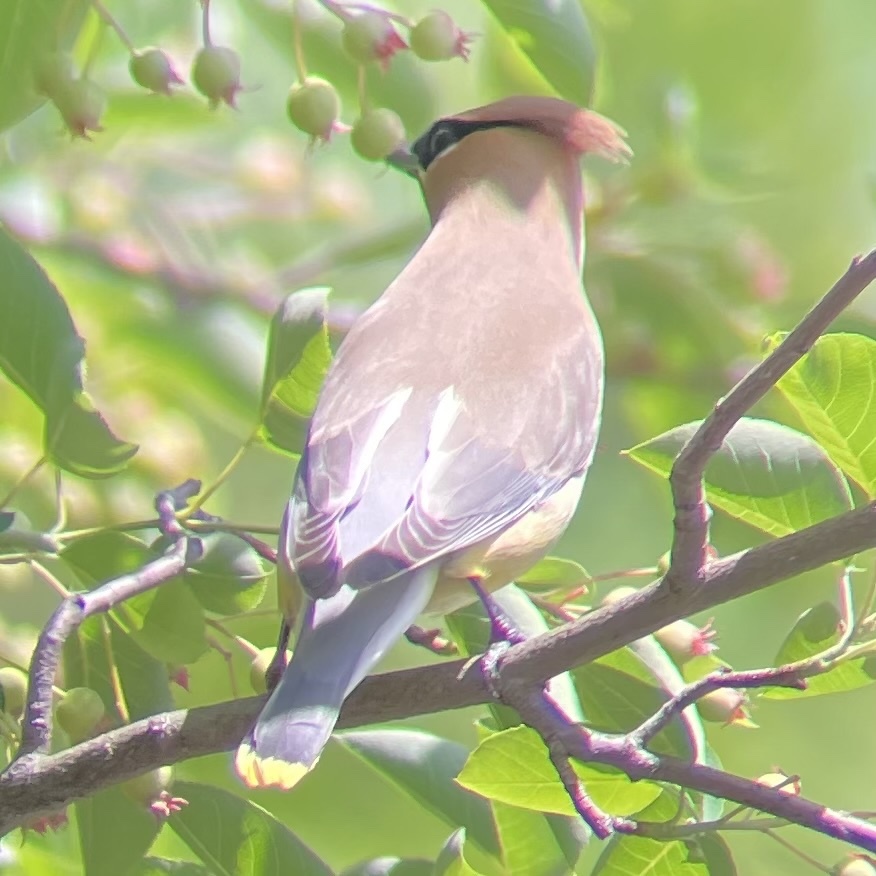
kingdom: Animalia
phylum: Chordata
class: Aves
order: Passeriformes
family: Bombycillidae
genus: Bombycilla
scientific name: Bombycilla cedrorum
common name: Cedar waxwing
